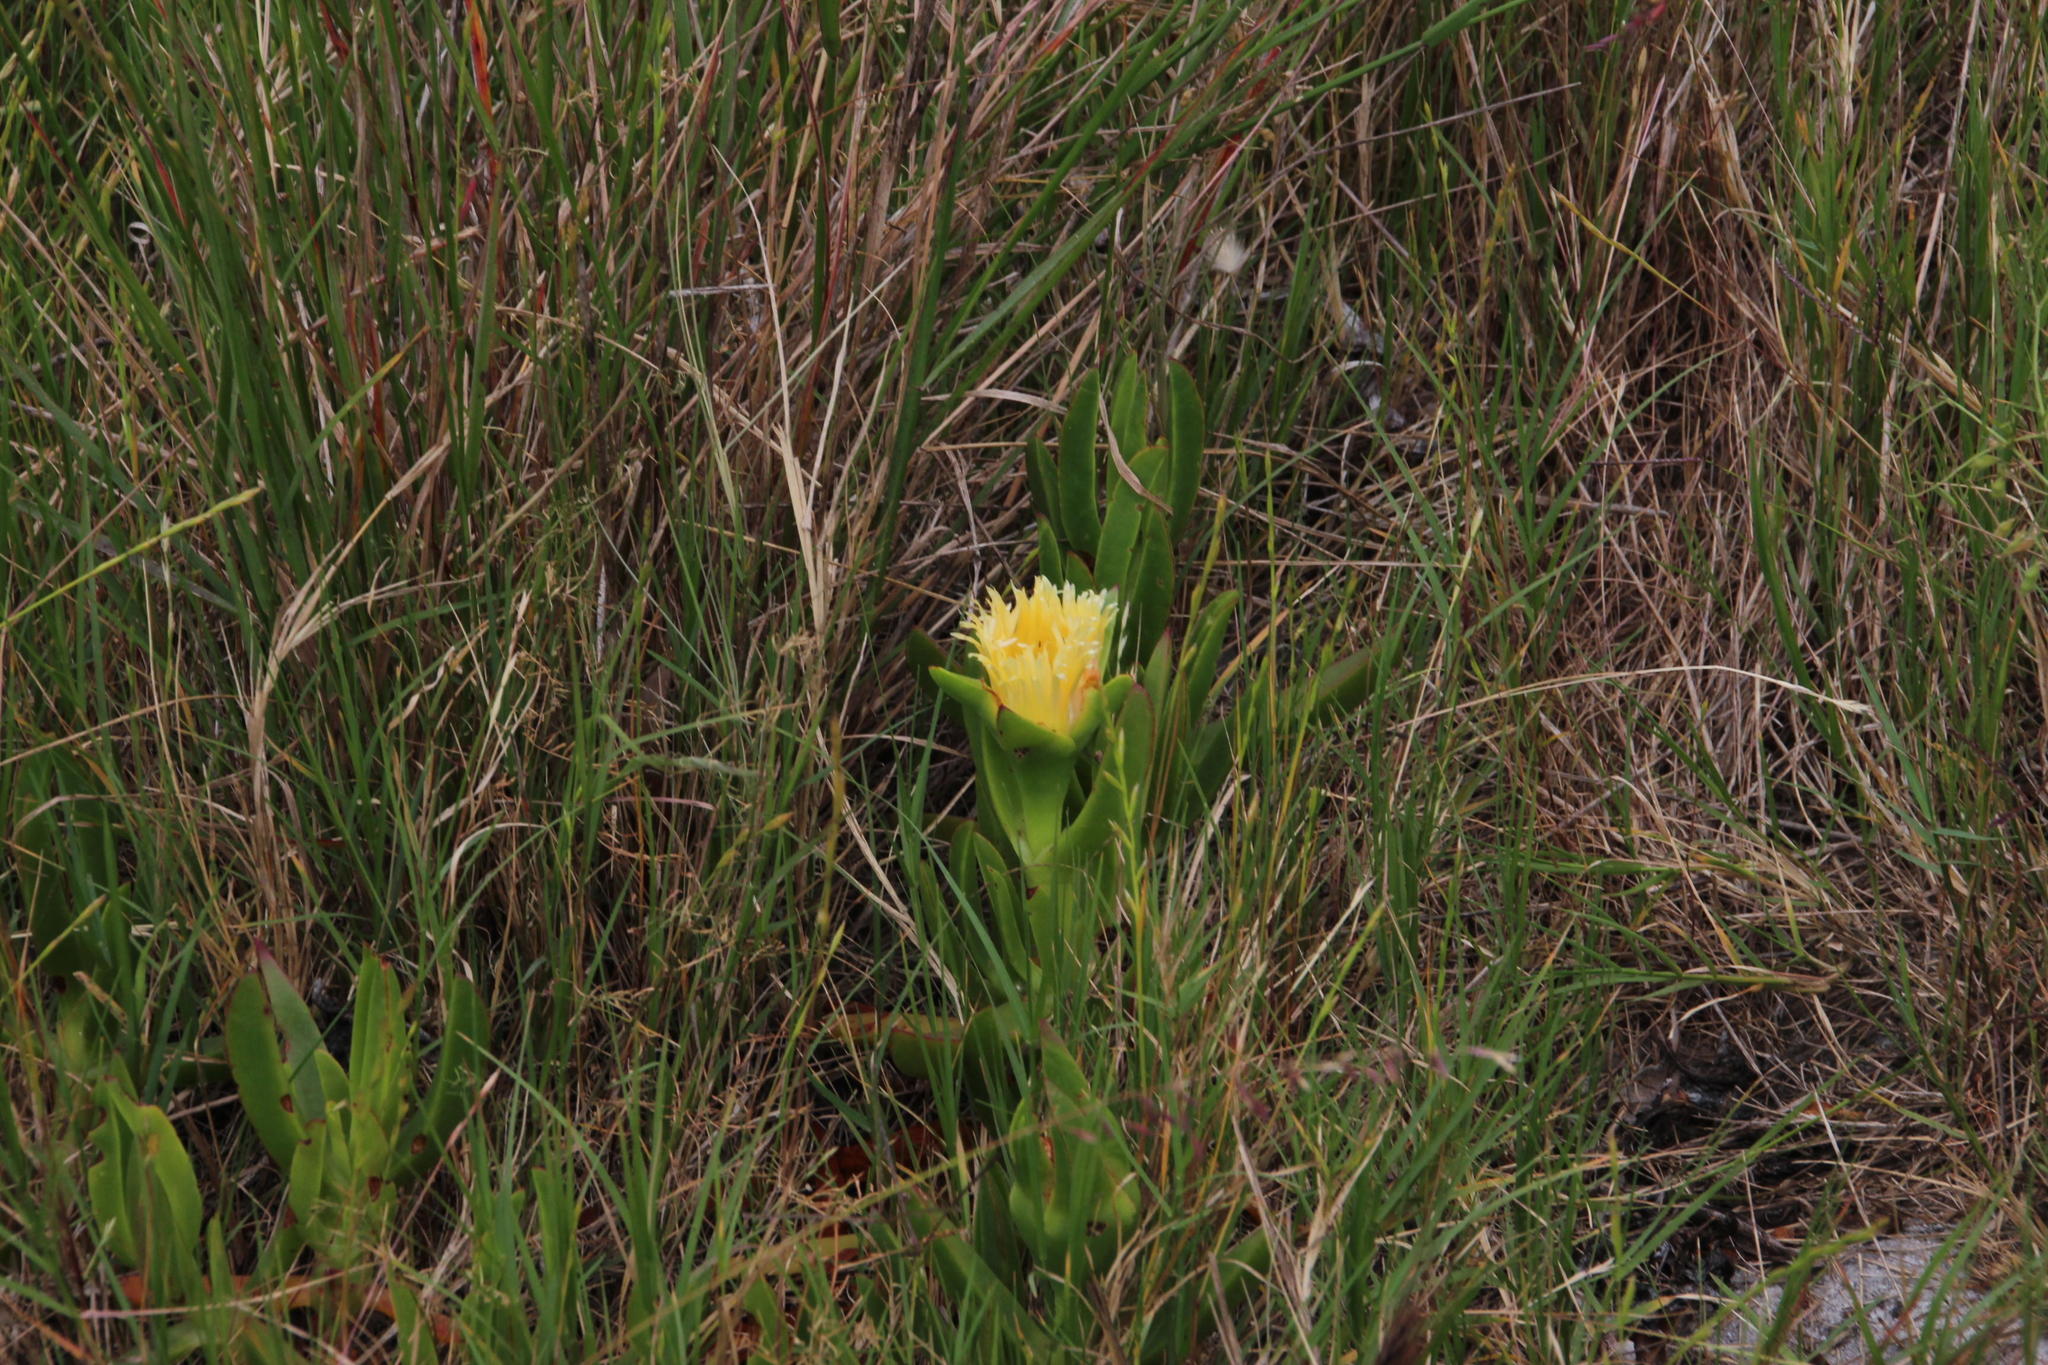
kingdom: Plantae
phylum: Tracheophyta
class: Magnoliopsida
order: Caryophyllales
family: Aizoaceae
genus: Carpobrotus
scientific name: Carpobrotus edulis
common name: Hottentot-fig
